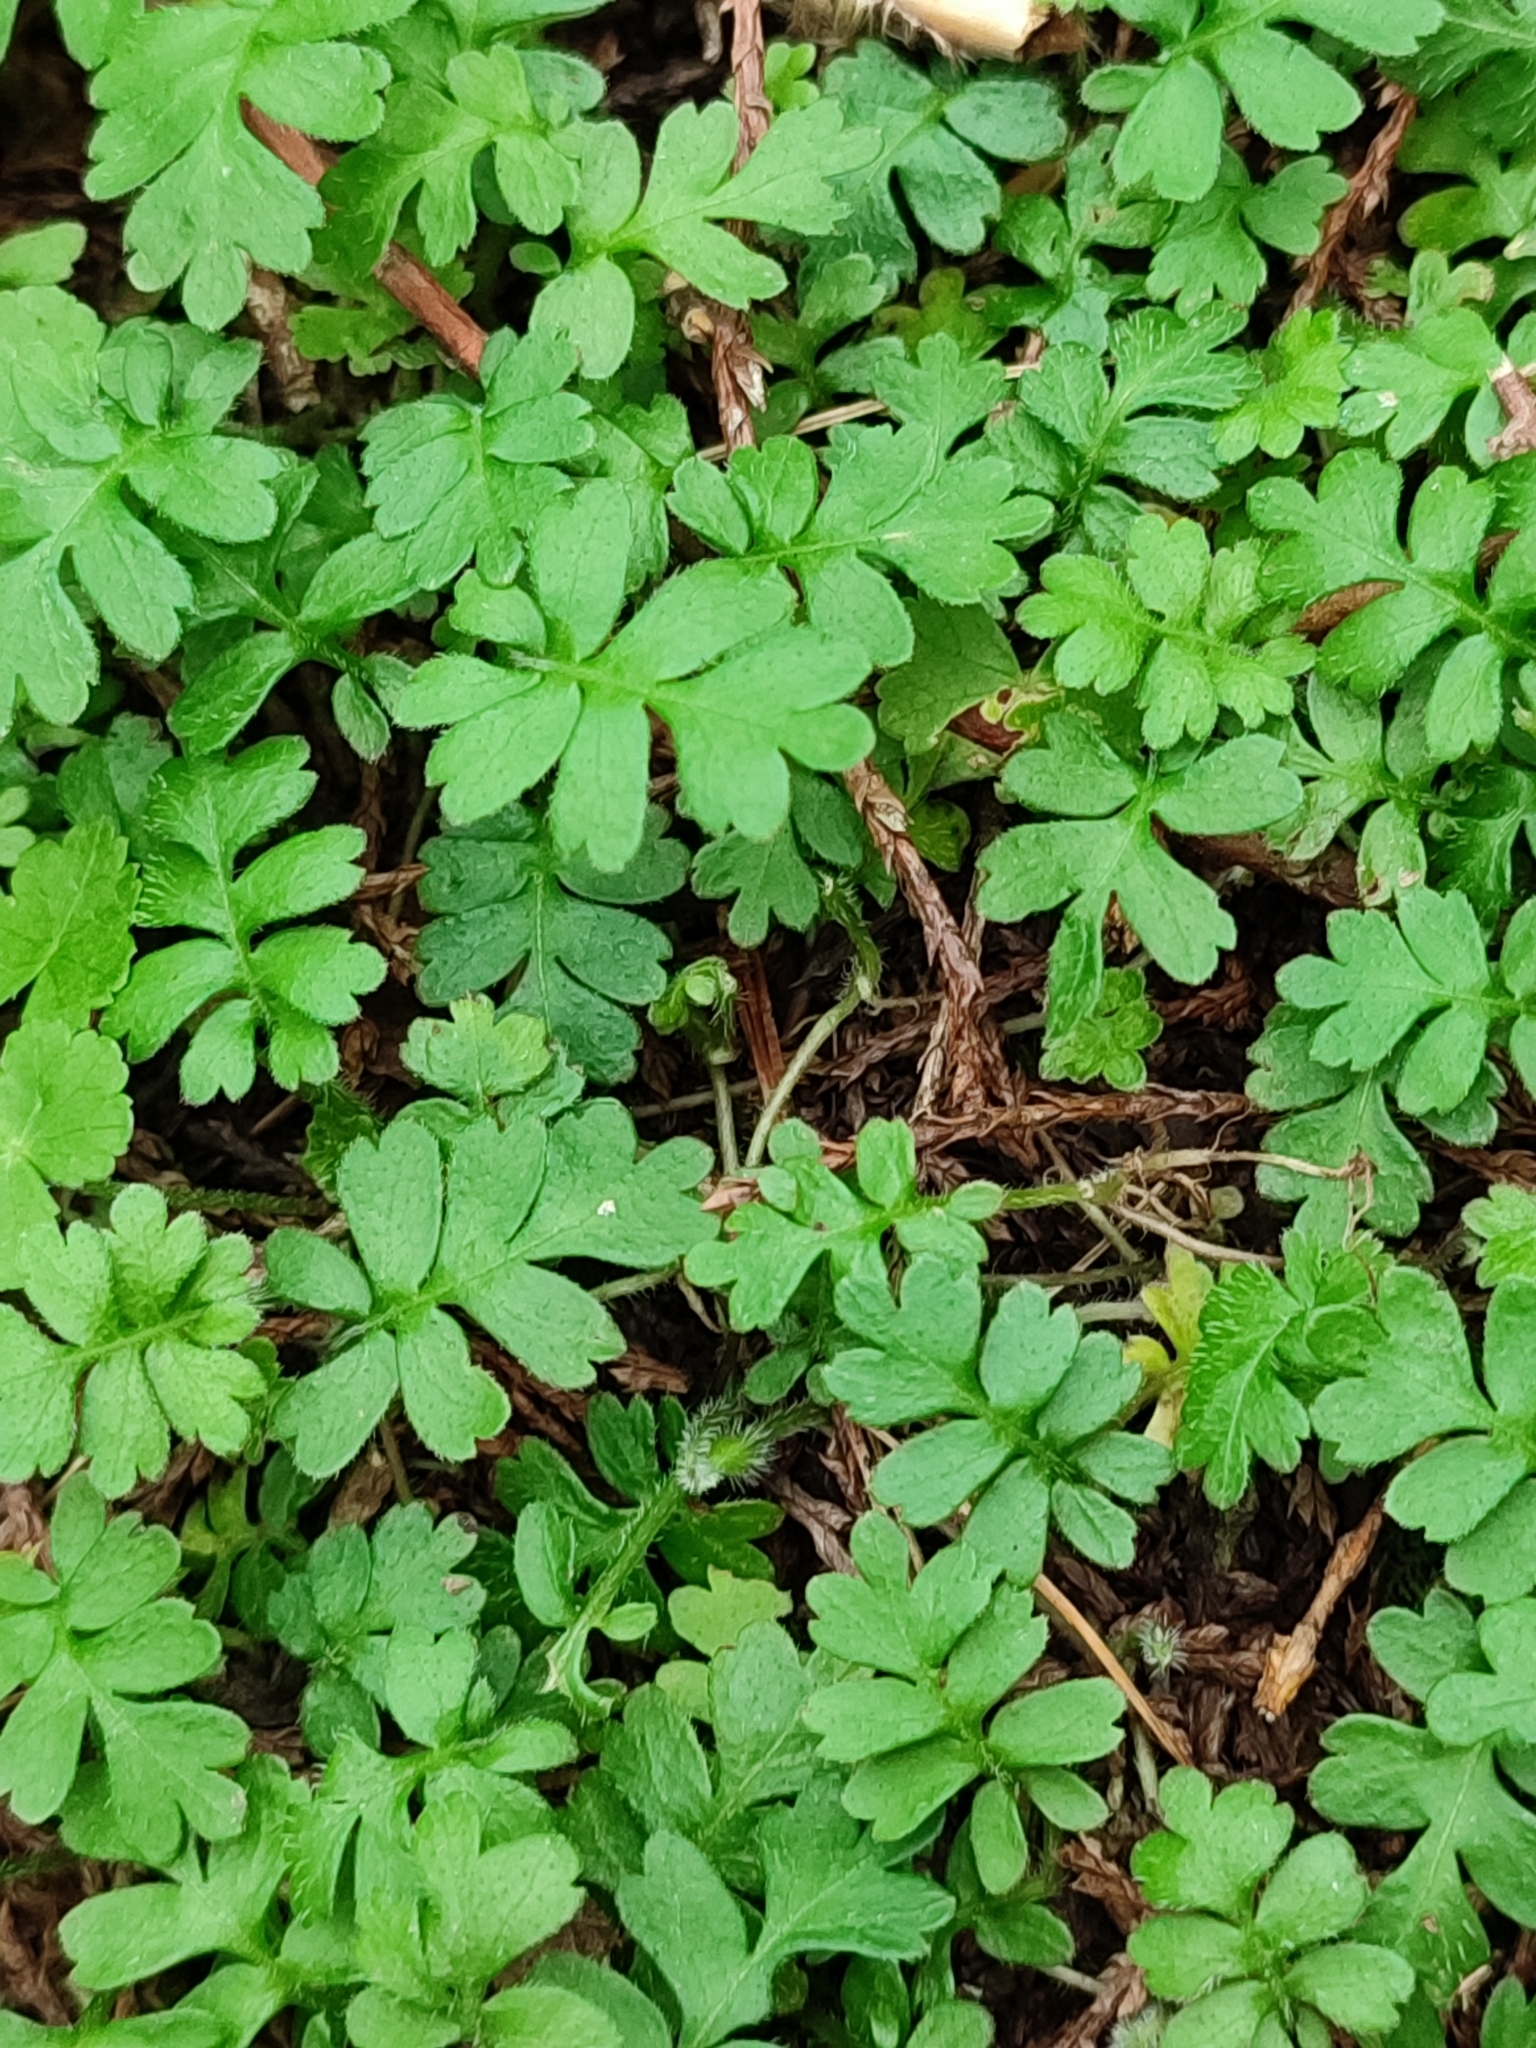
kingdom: Plantae
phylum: Tracheophyta
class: Magnoliopsida
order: Lamiales
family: Plantaginaceae
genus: Ellisiophyllum
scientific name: Ellisiophyllum pinnatum
